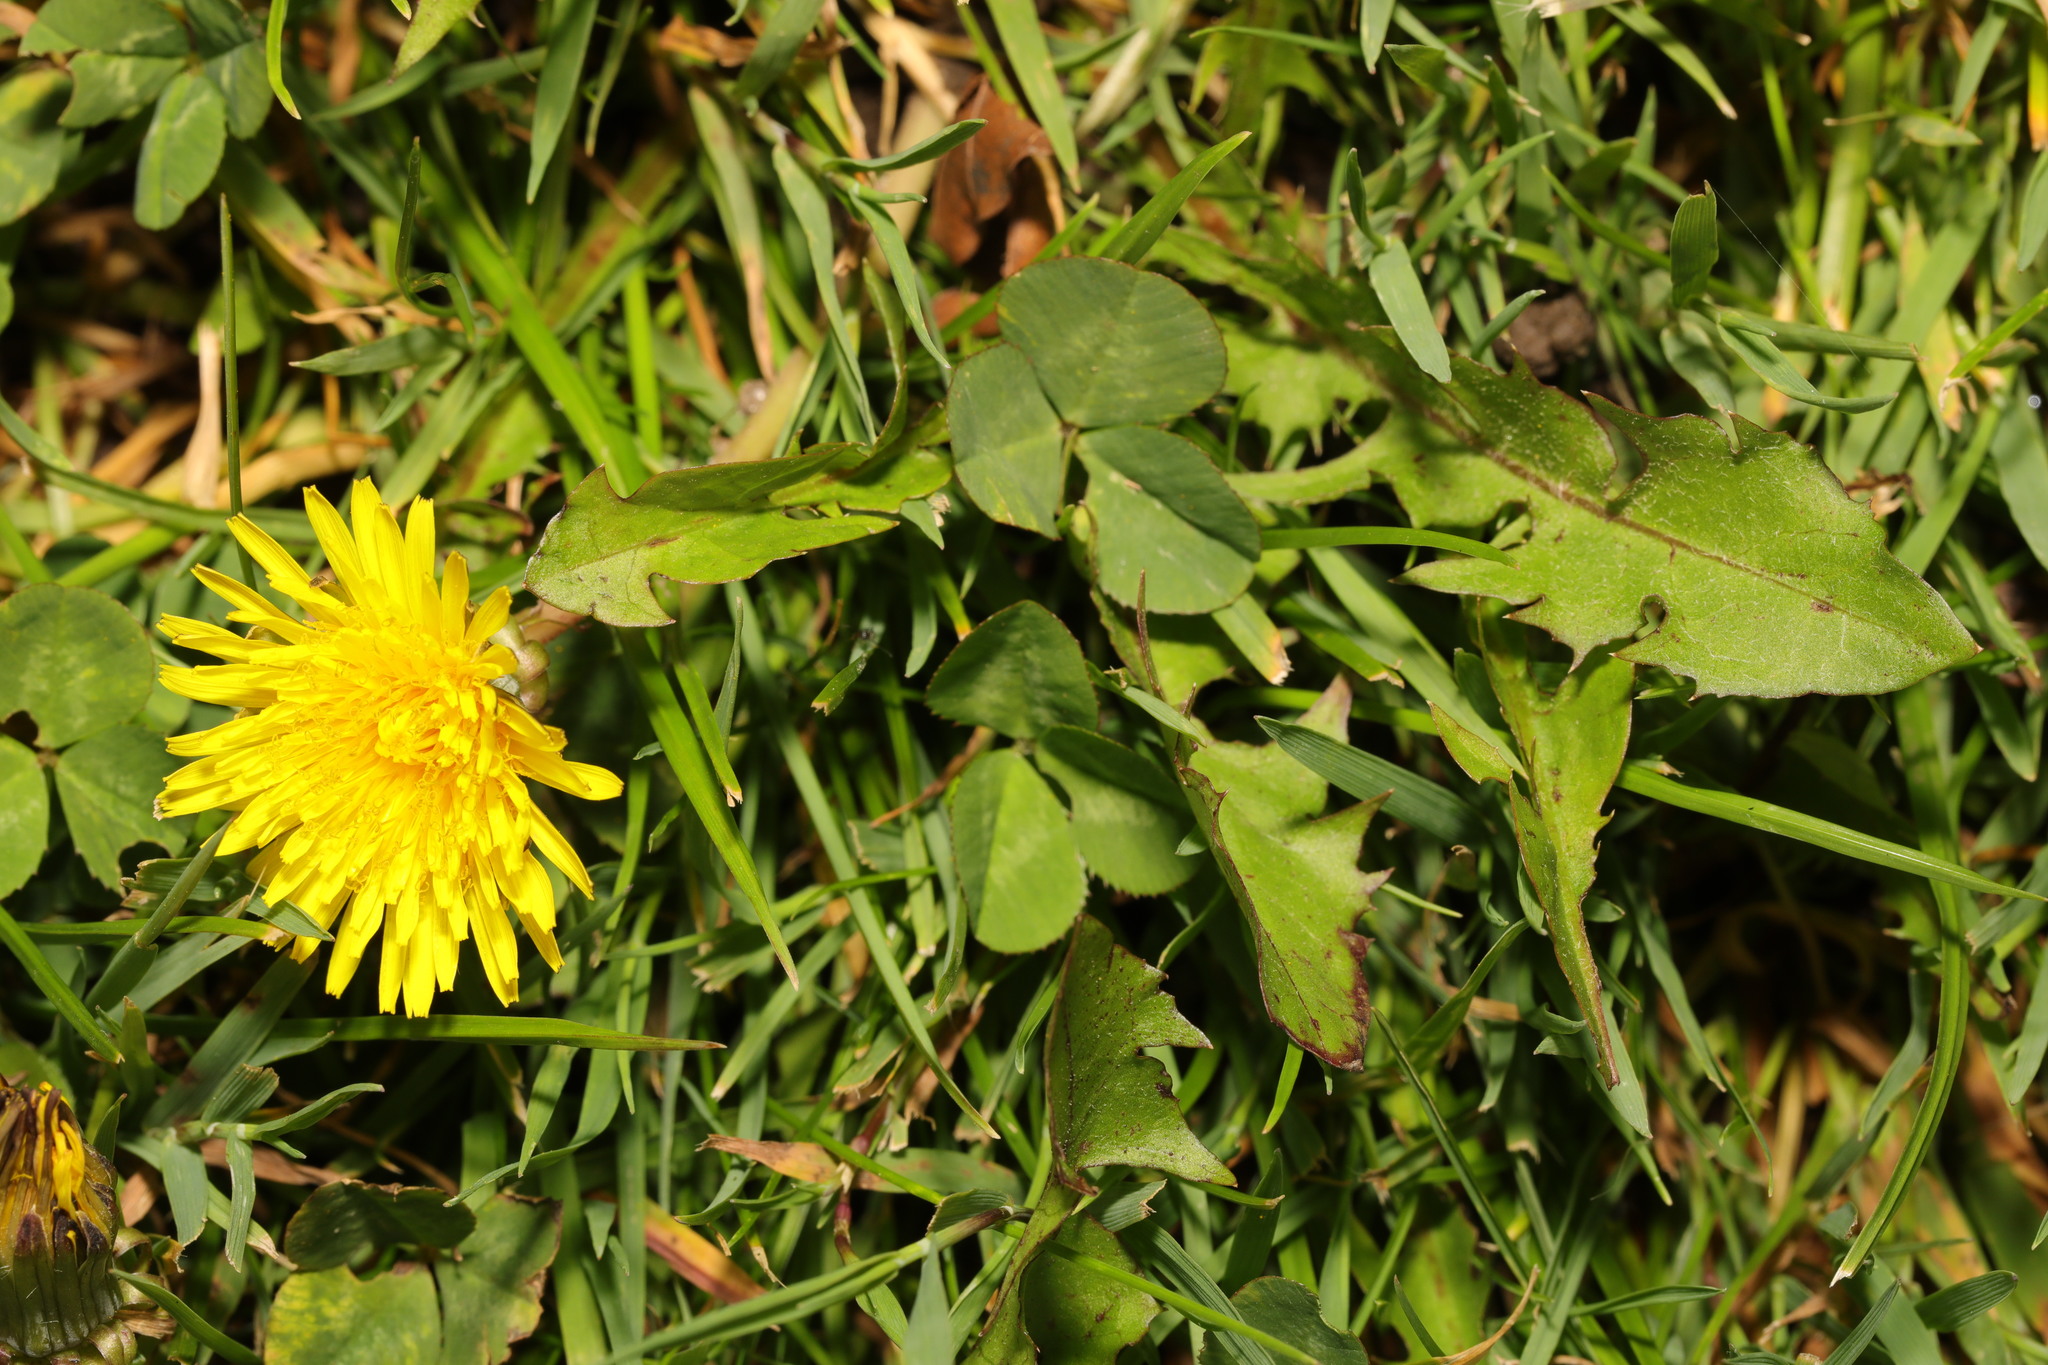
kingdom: Plantae
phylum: Tracheophyta
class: Magnoliopsida
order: Asterales
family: Asteraceae
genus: Taraxacum
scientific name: Taraxacum officinale
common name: Common dandelion
